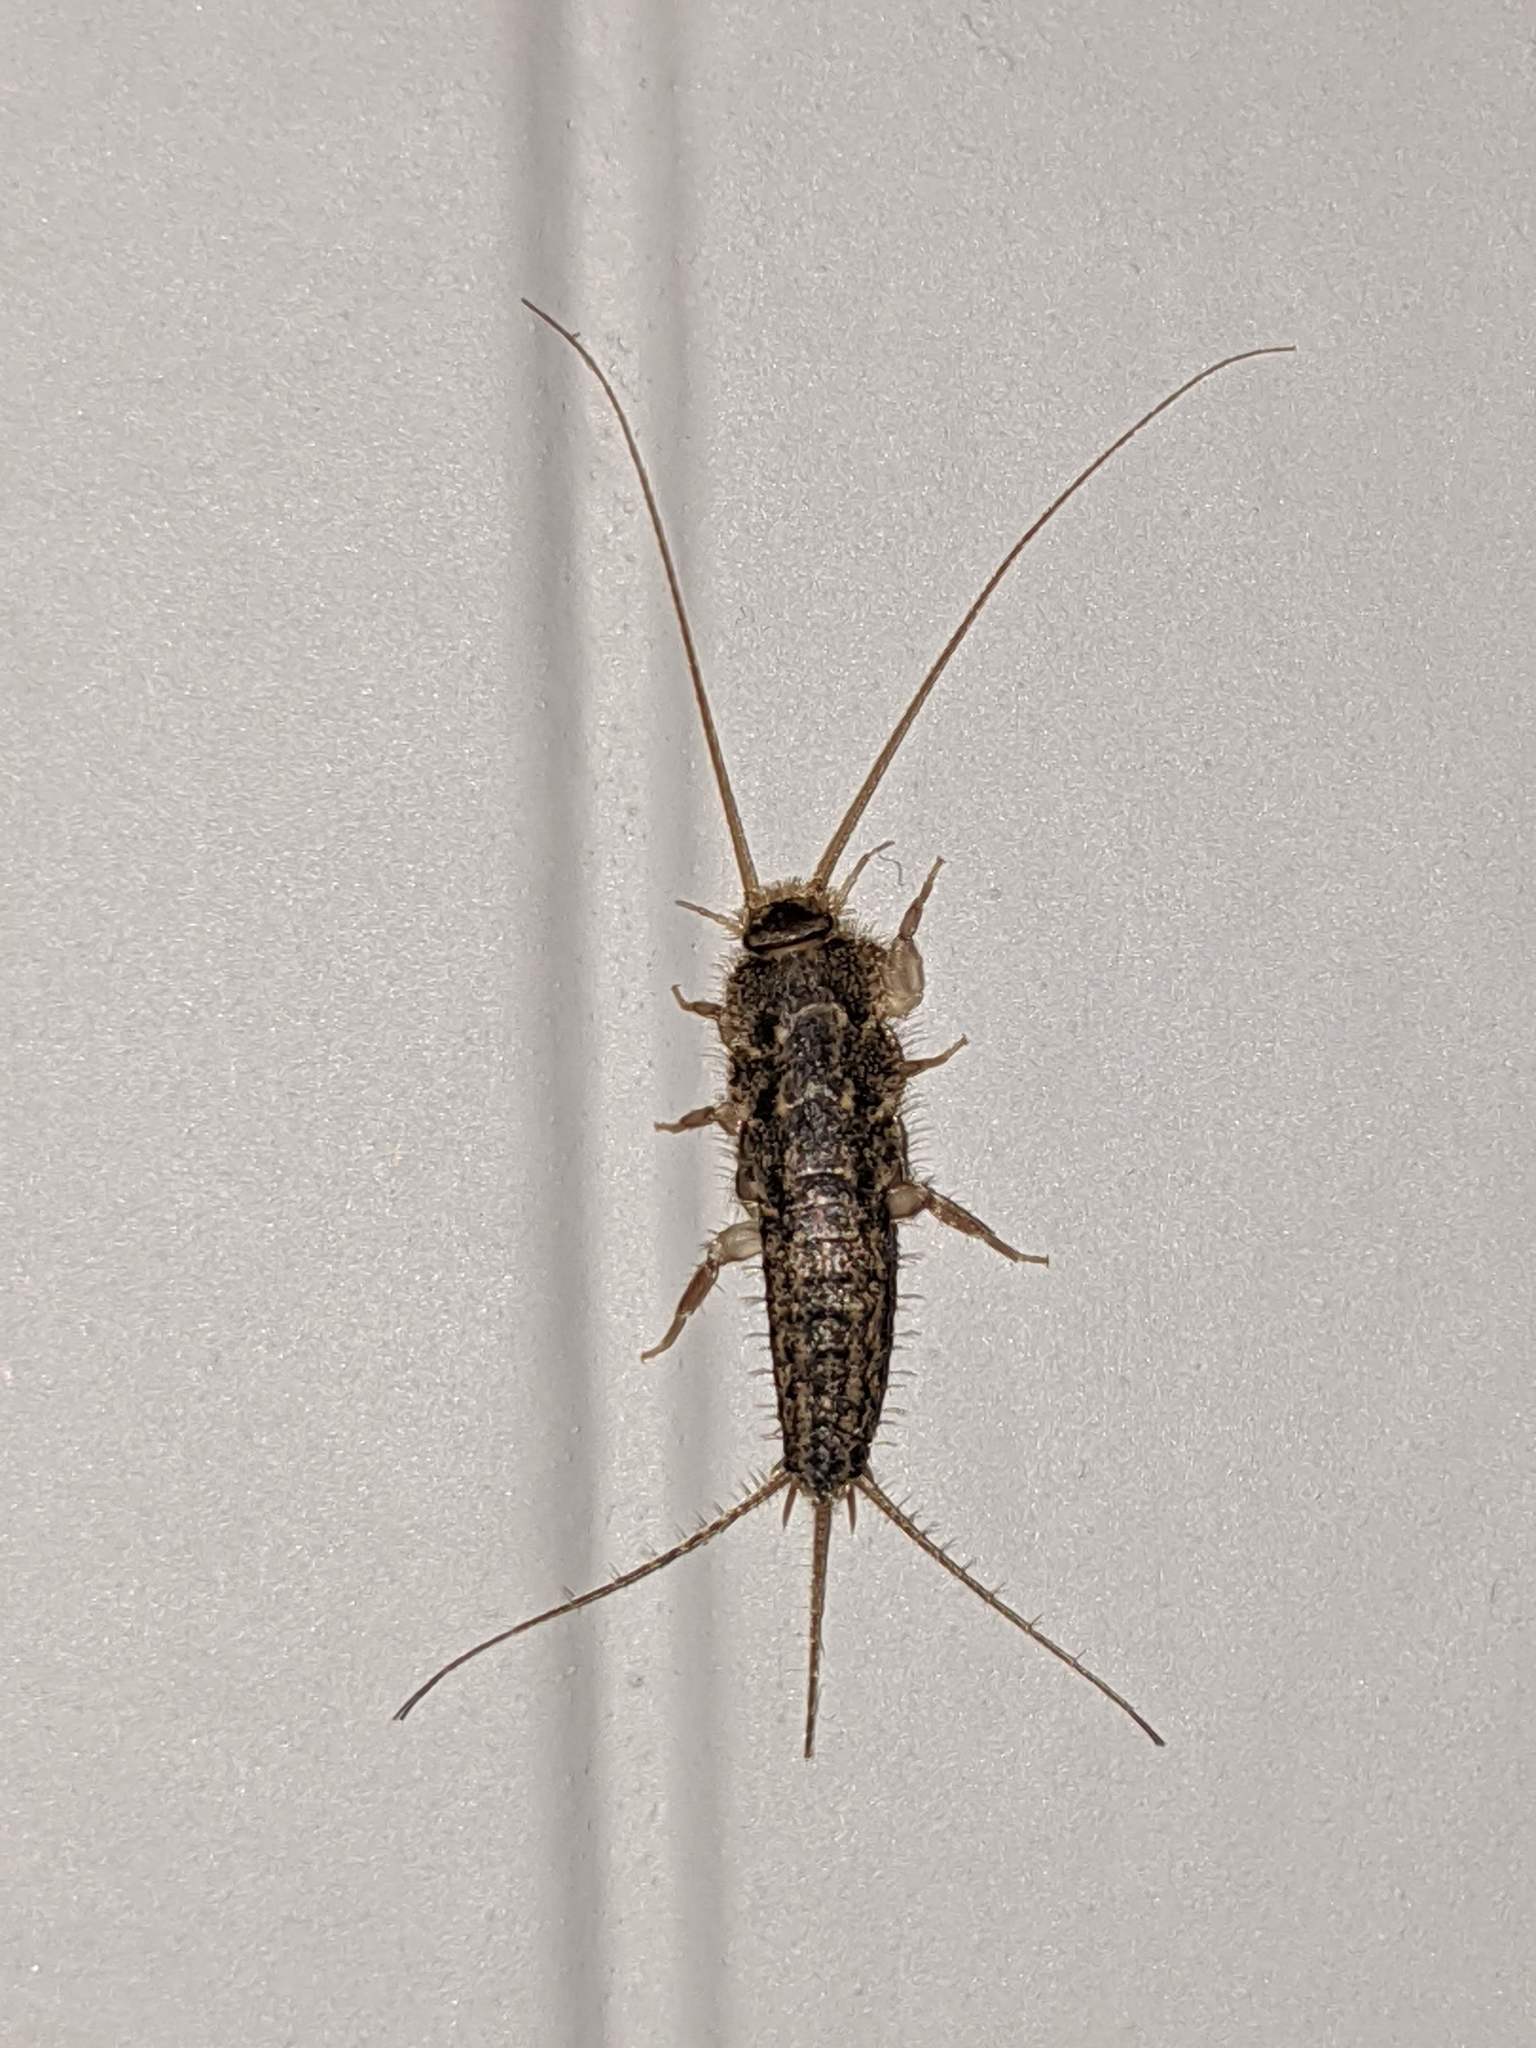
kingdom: Animalia
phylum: Arthropoda
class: Insecta
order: Zygentoma
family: Lepismatidae
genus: Ctenolepisma
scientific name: Ctenolepisma lineata
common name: Four-lined silverfish
